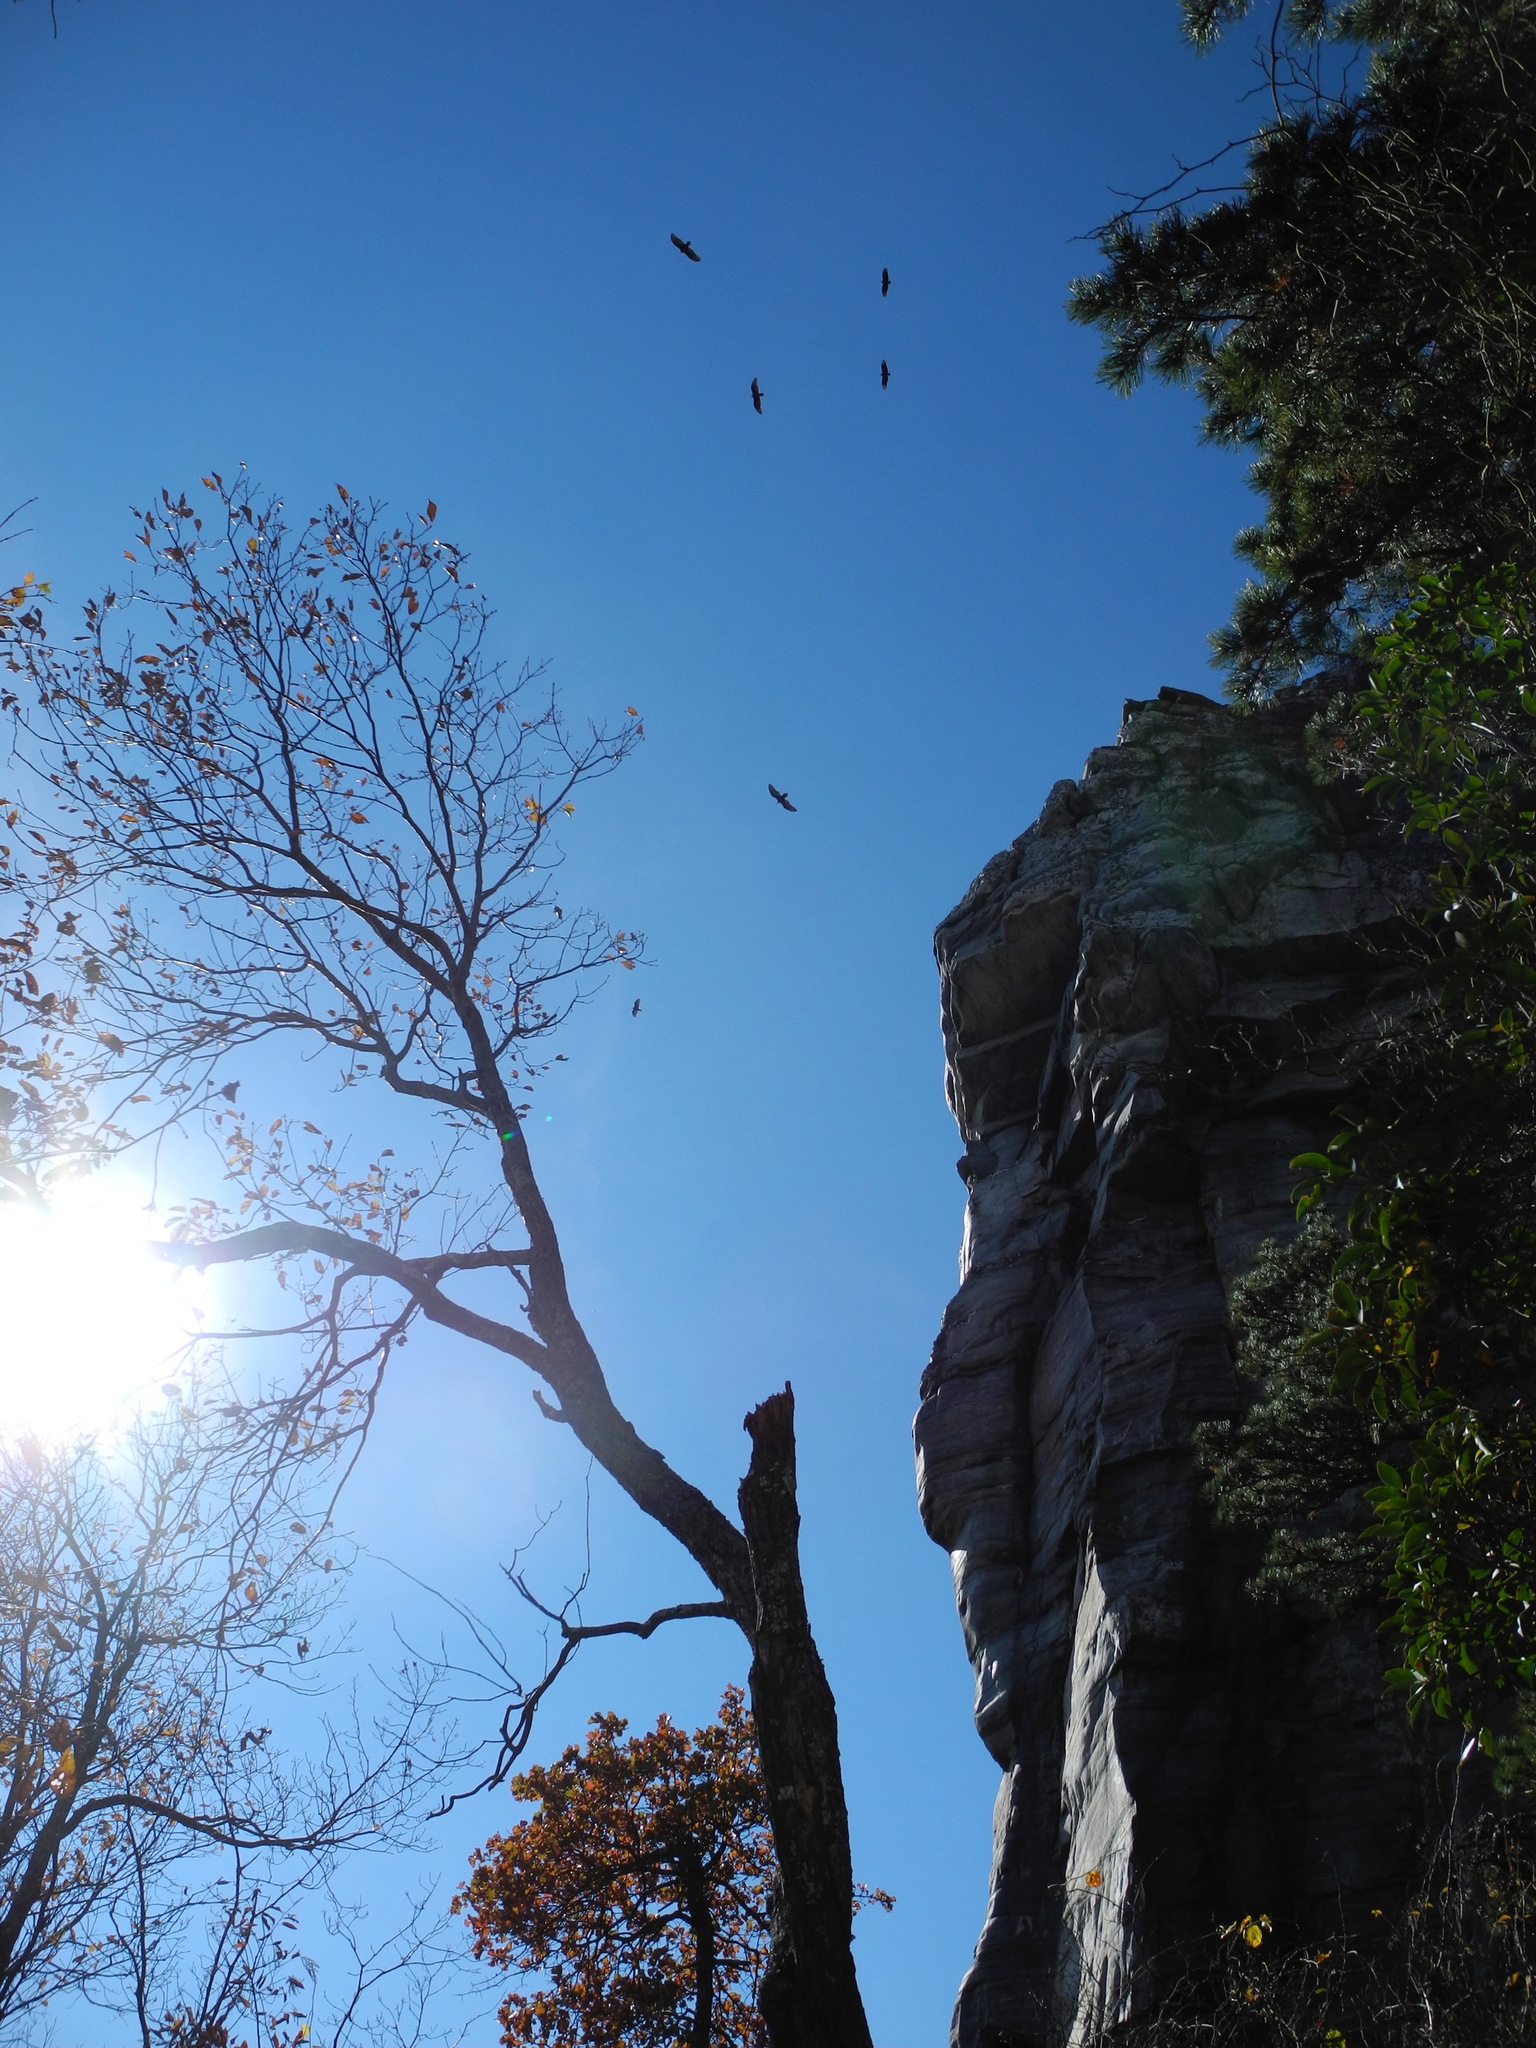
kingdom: Animalia
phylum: Chordata
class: Aves
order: Accipitriformes
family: Cathartidae
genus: Coragyps
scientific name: Coragyps atratus
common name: Black vulture
